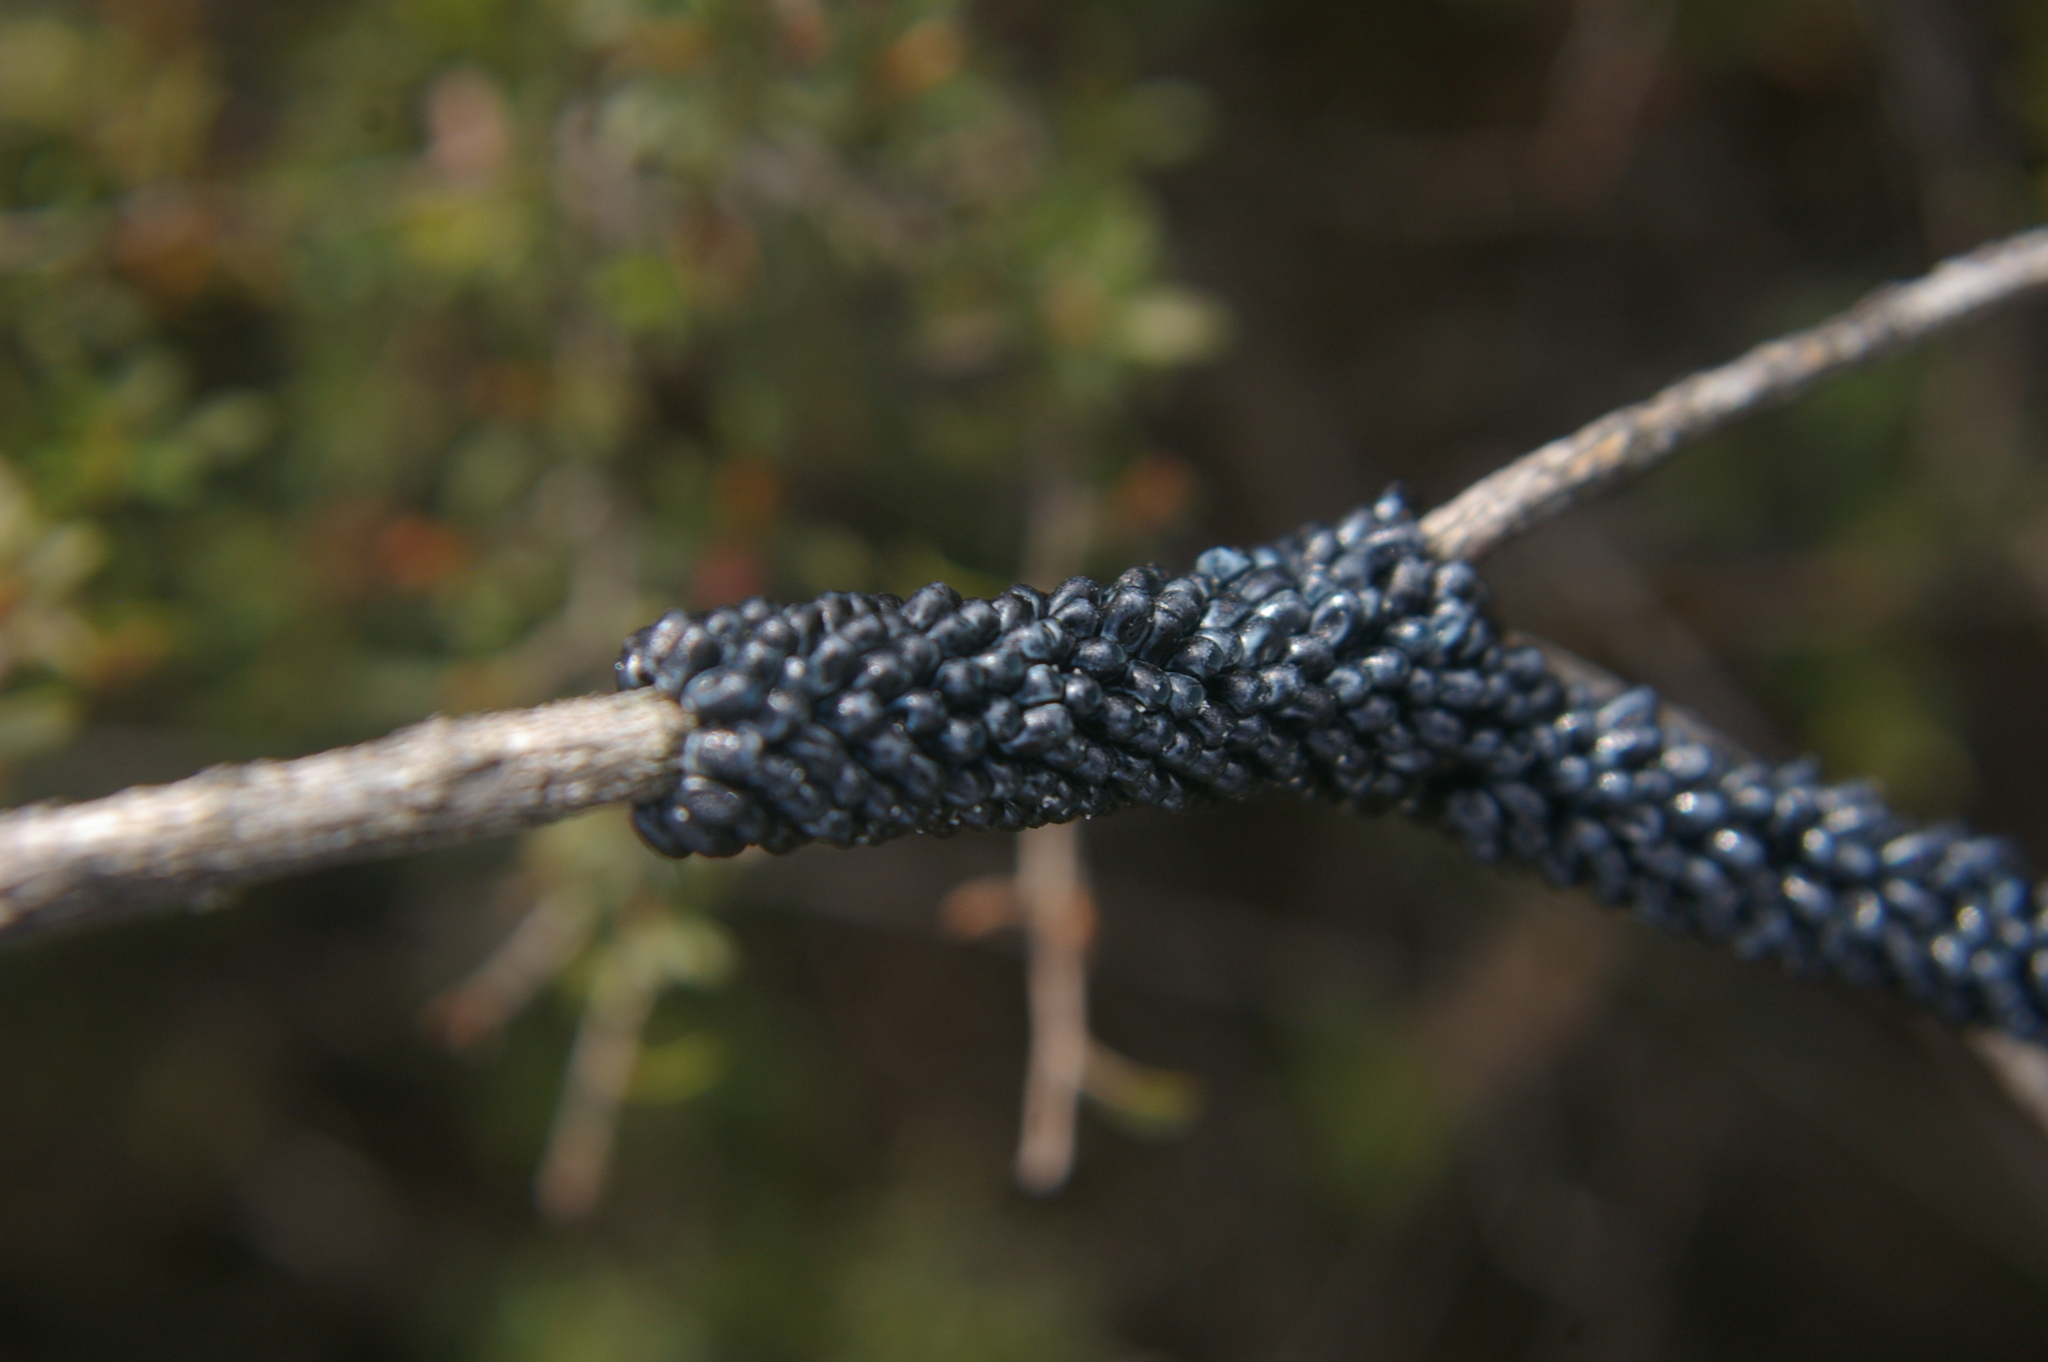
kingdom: Animalia
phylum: Arthropoda
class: Insecta
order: Lepidoptera
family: Cossidae
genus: Ptilomacra
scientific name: Ptilomacra senex
